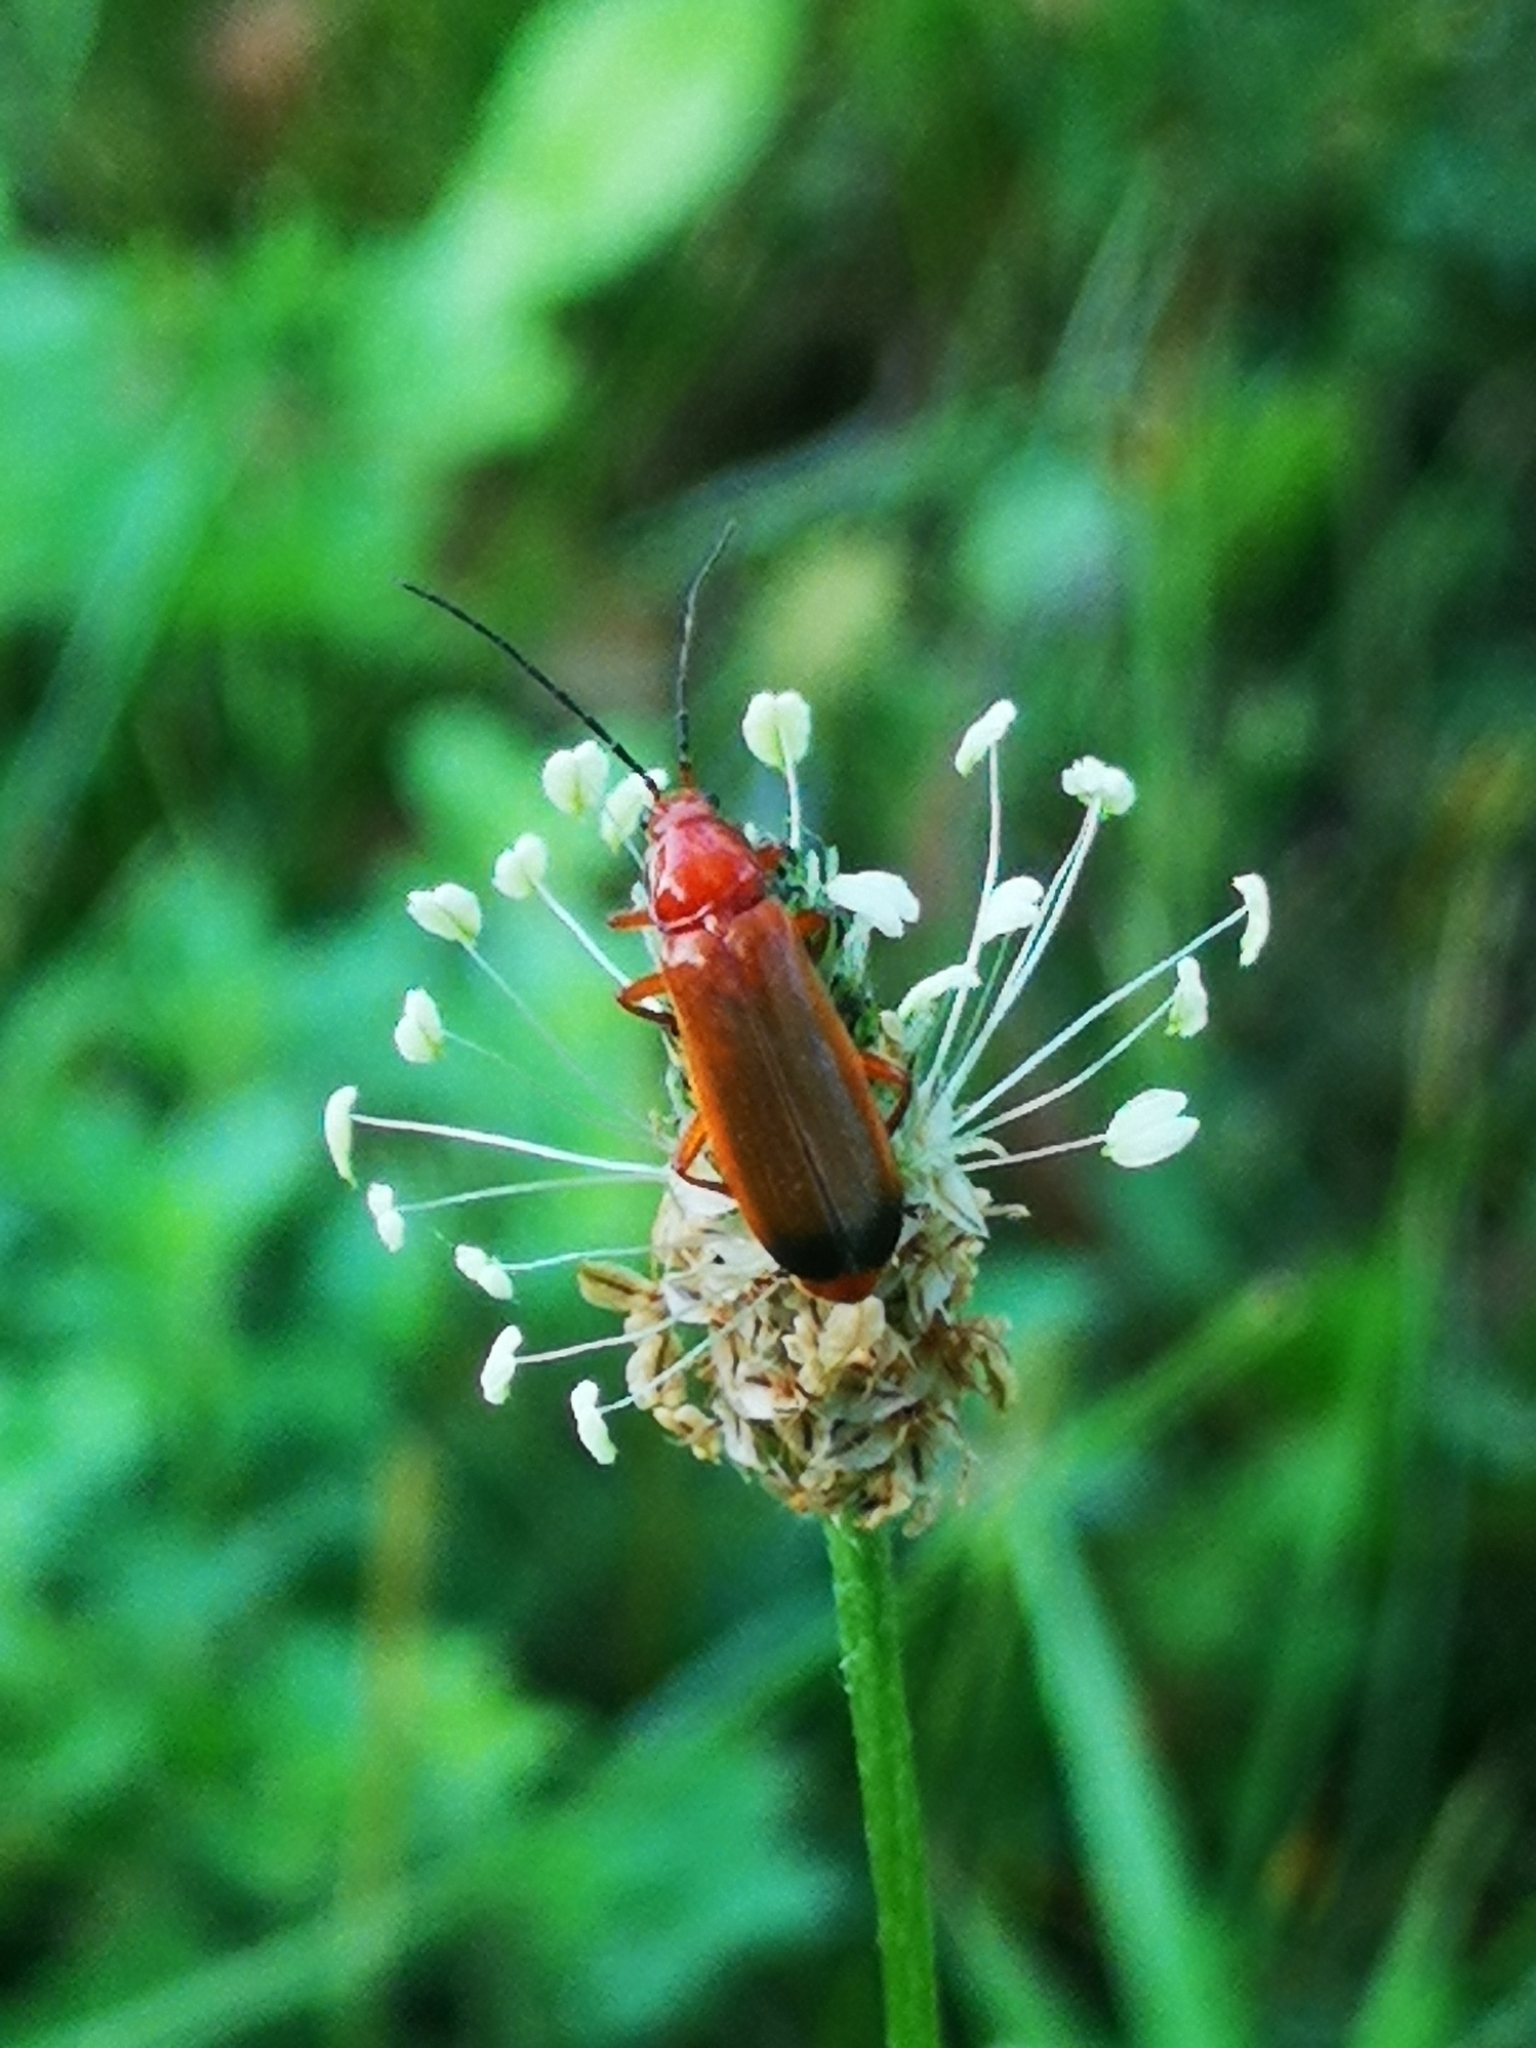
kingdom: Animalia
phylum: Arthropoda
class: Insecta
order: Coleoptera
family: Cantharidae
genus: Rhagonycha
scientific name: Rhagonycha fulva
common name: Common red soldier beetle
